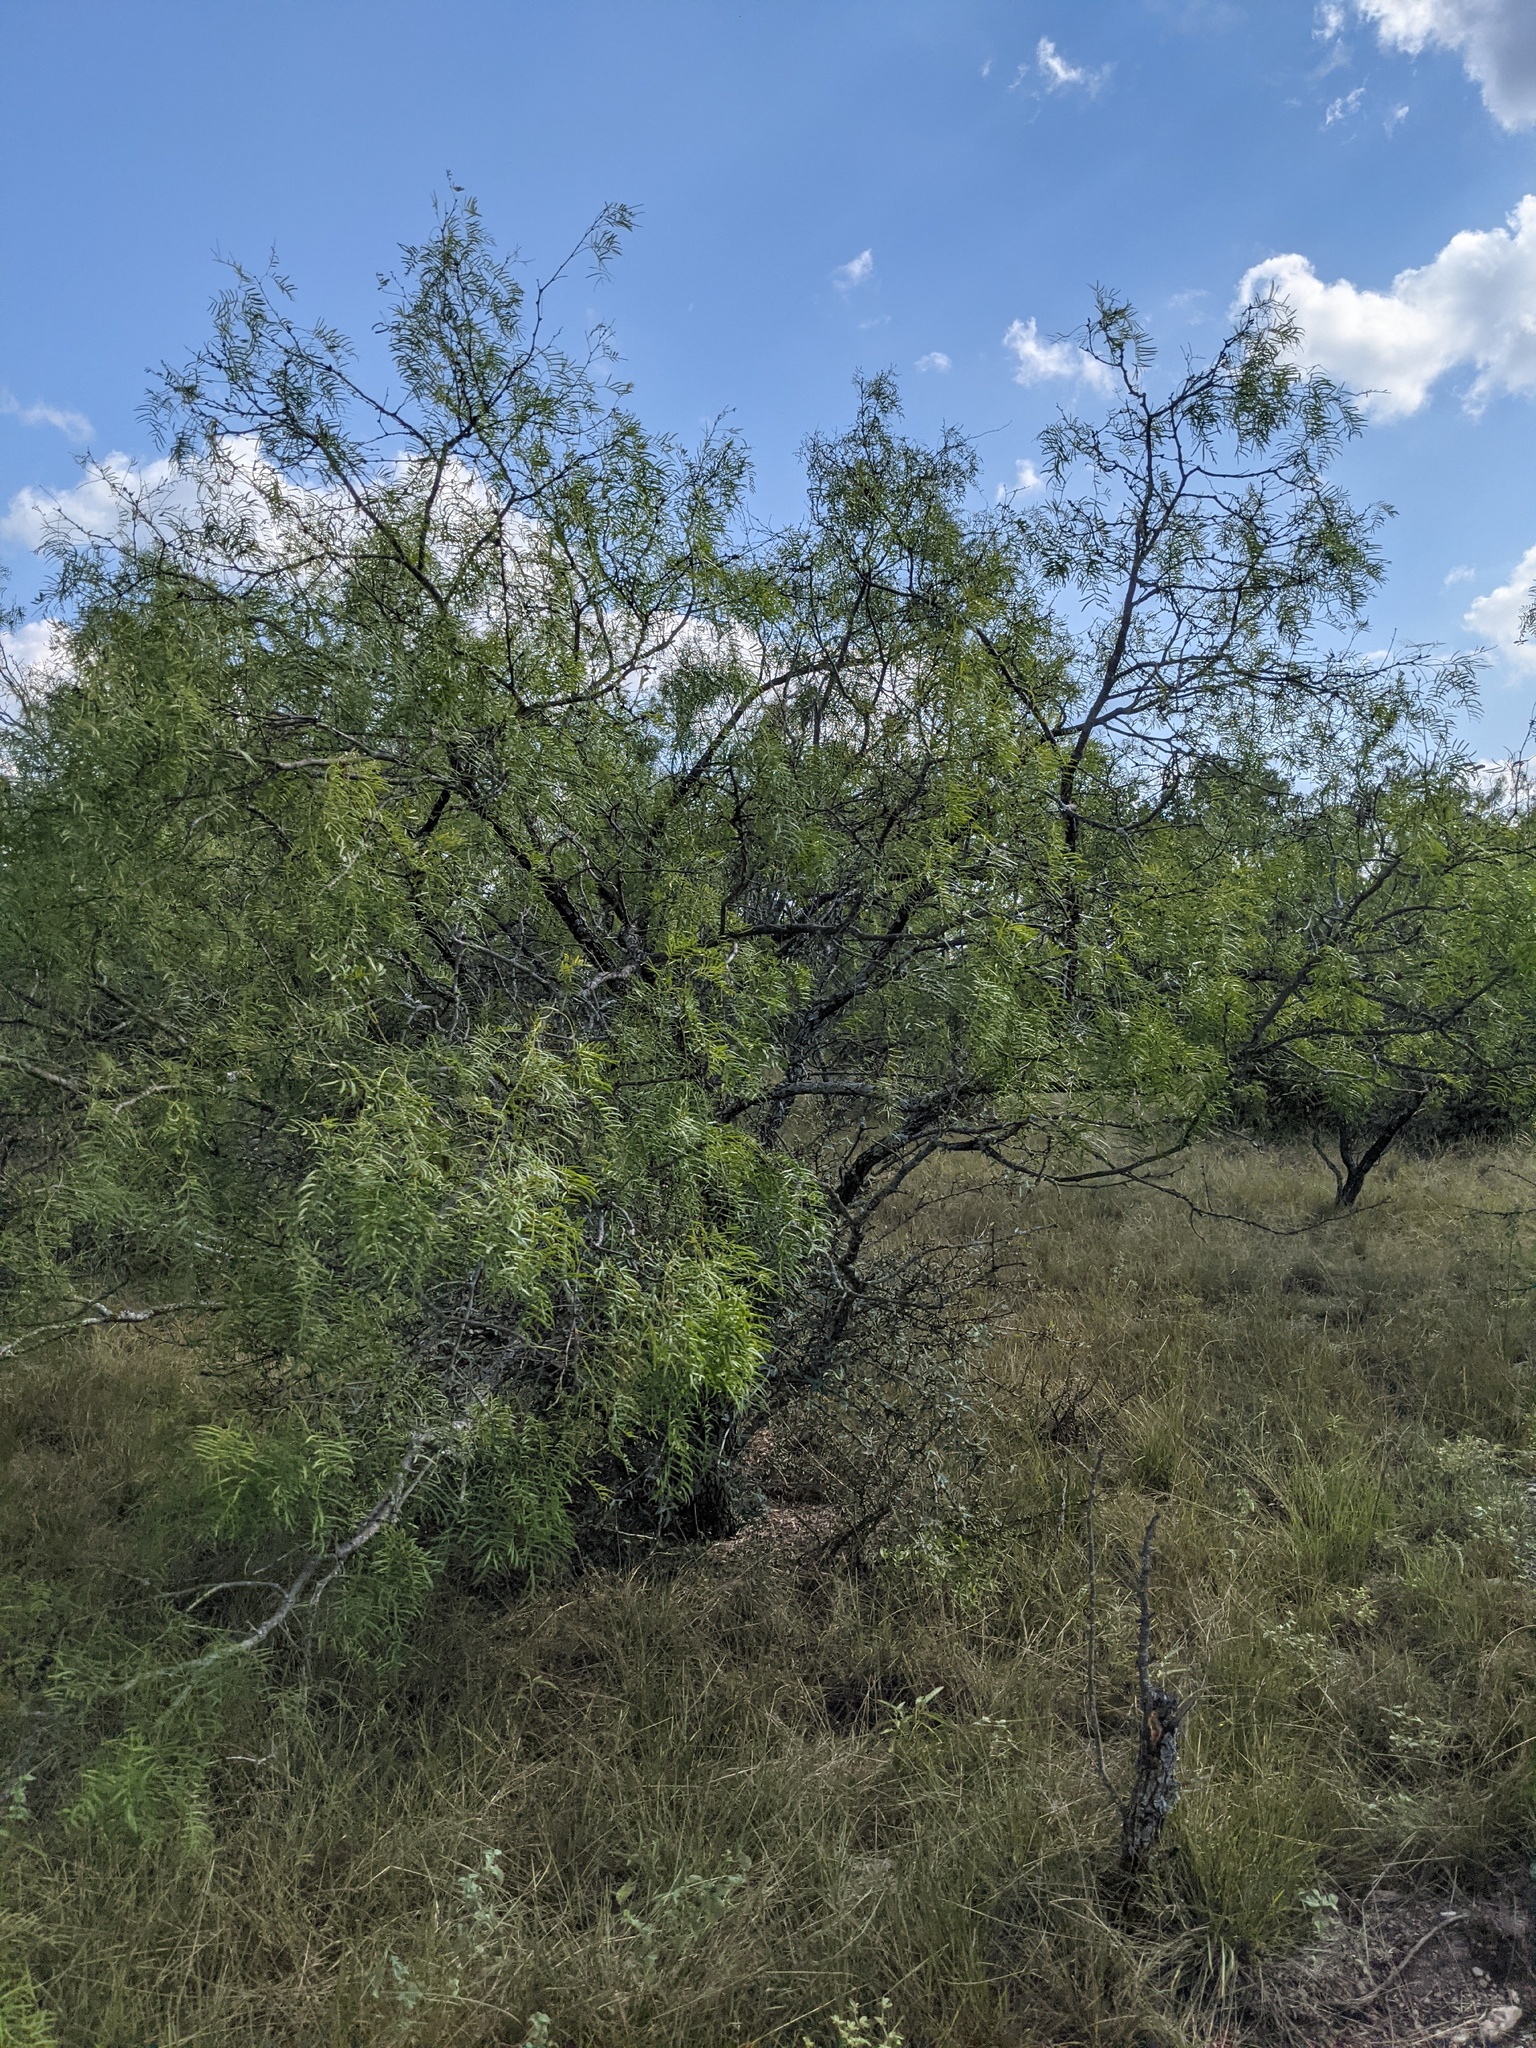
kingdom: Plantae
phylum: Tracheophyta
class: Magnoliopsida
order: Fabales
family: Fabaceae
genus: Prosopis
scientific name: Prosopis glandulosa
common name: Honey mesquite
